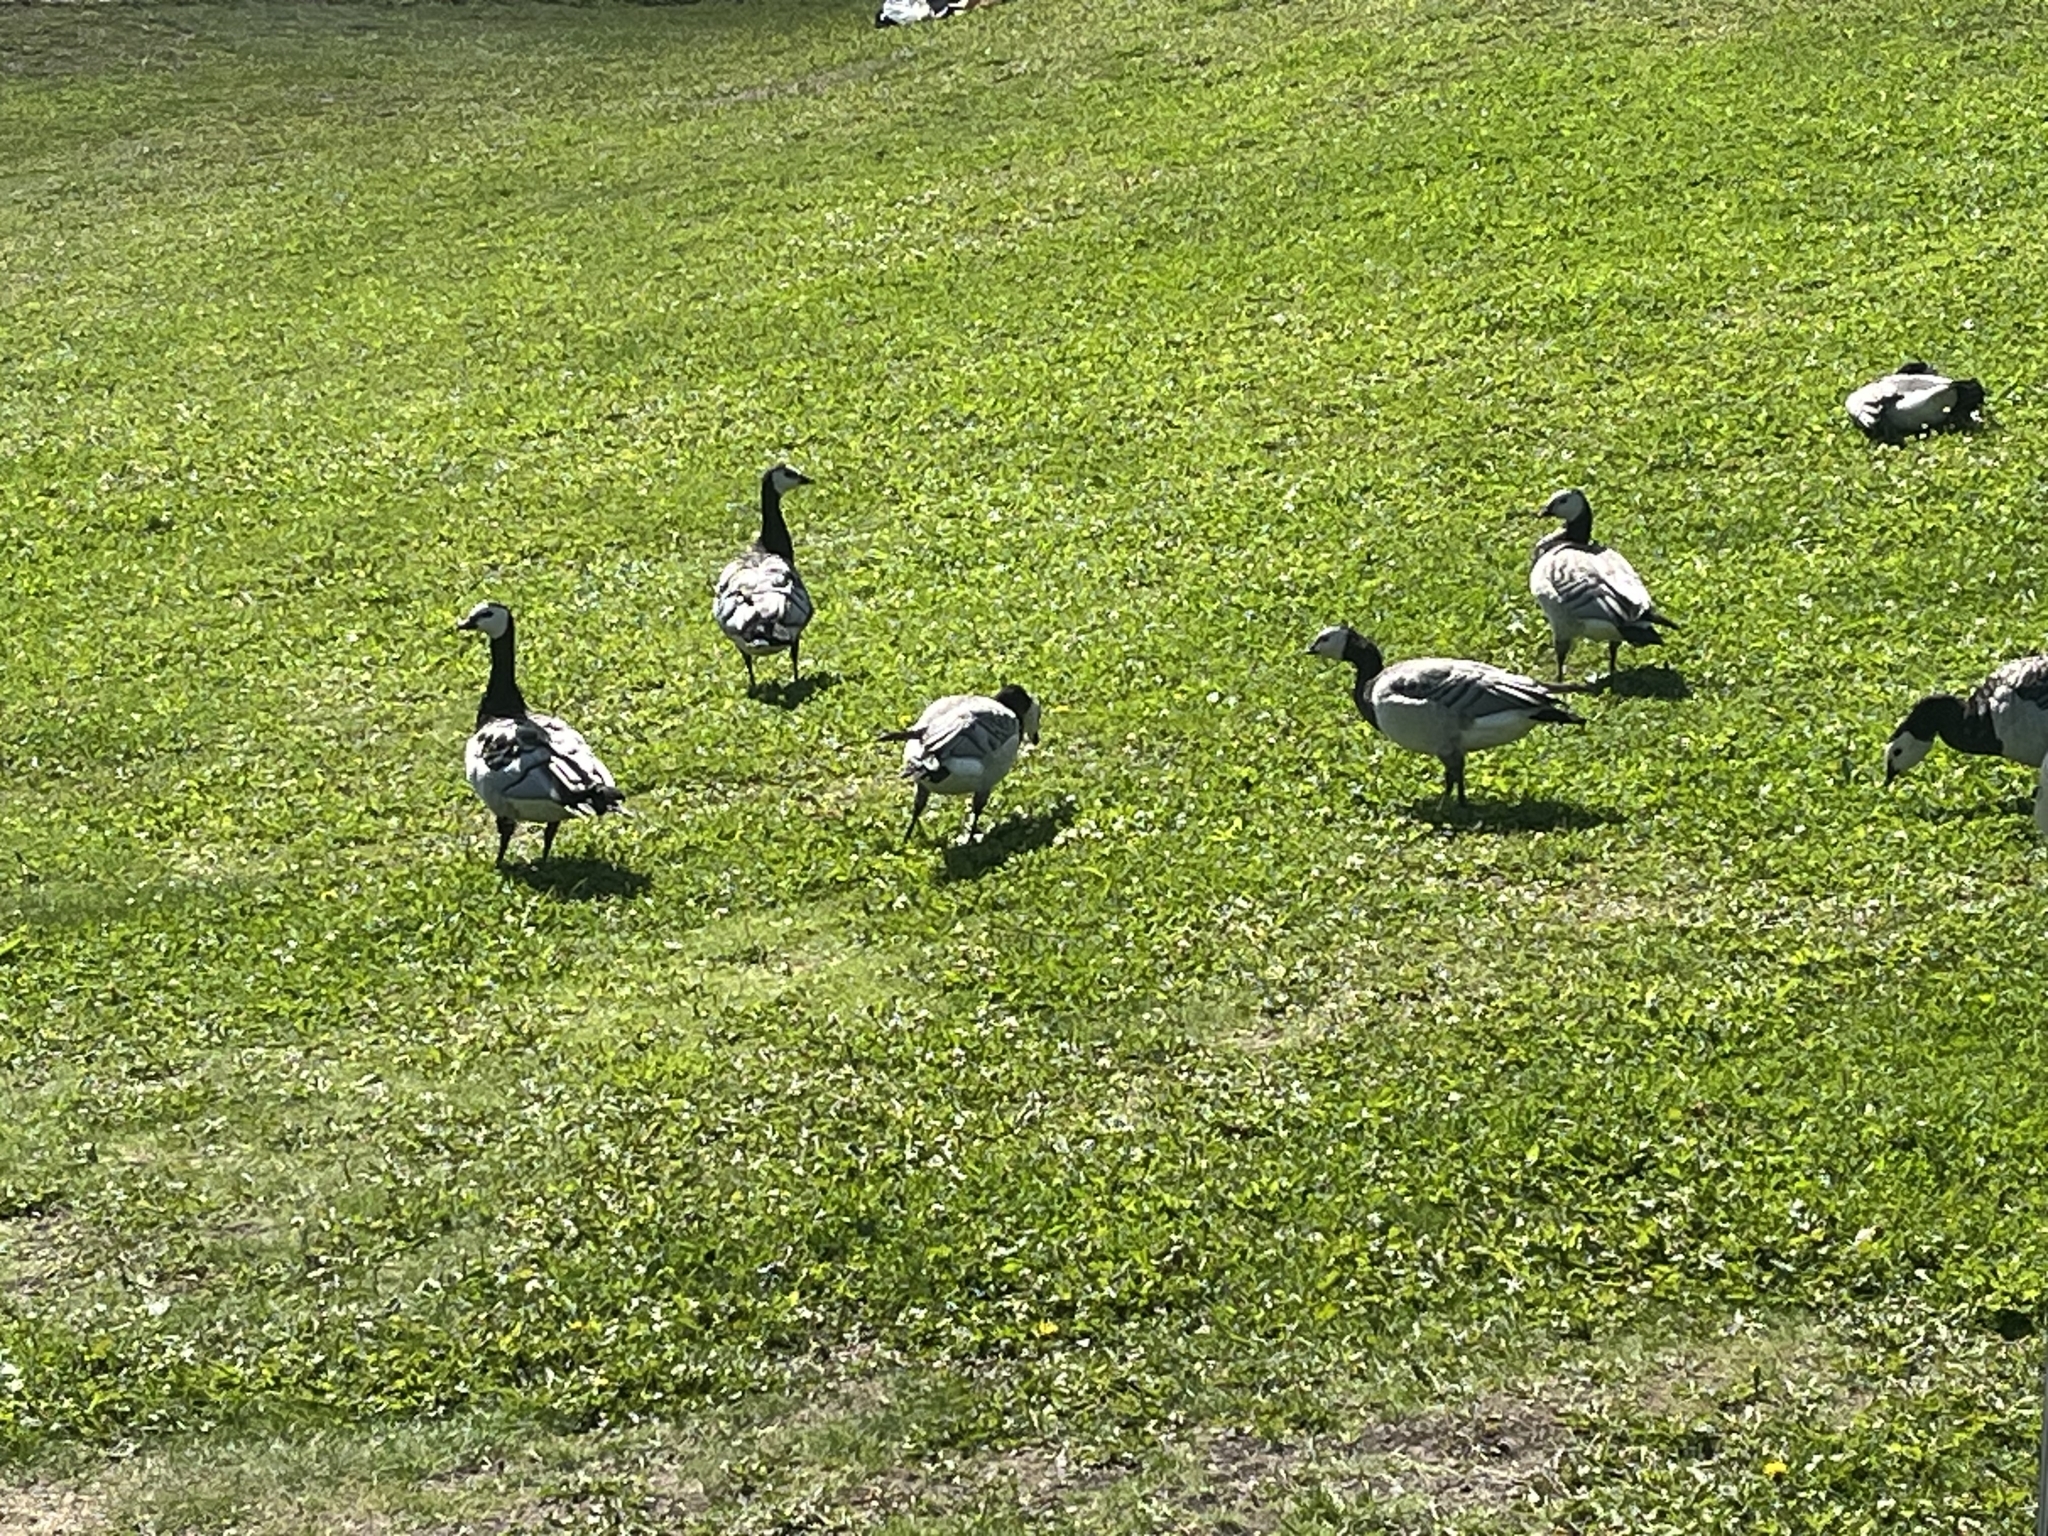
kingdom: Animalia
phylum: Chordata
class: Aves
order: Anseriformes
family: Anatidae
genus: Branta
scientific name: Branta leucopsis
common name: Barnacle goose
